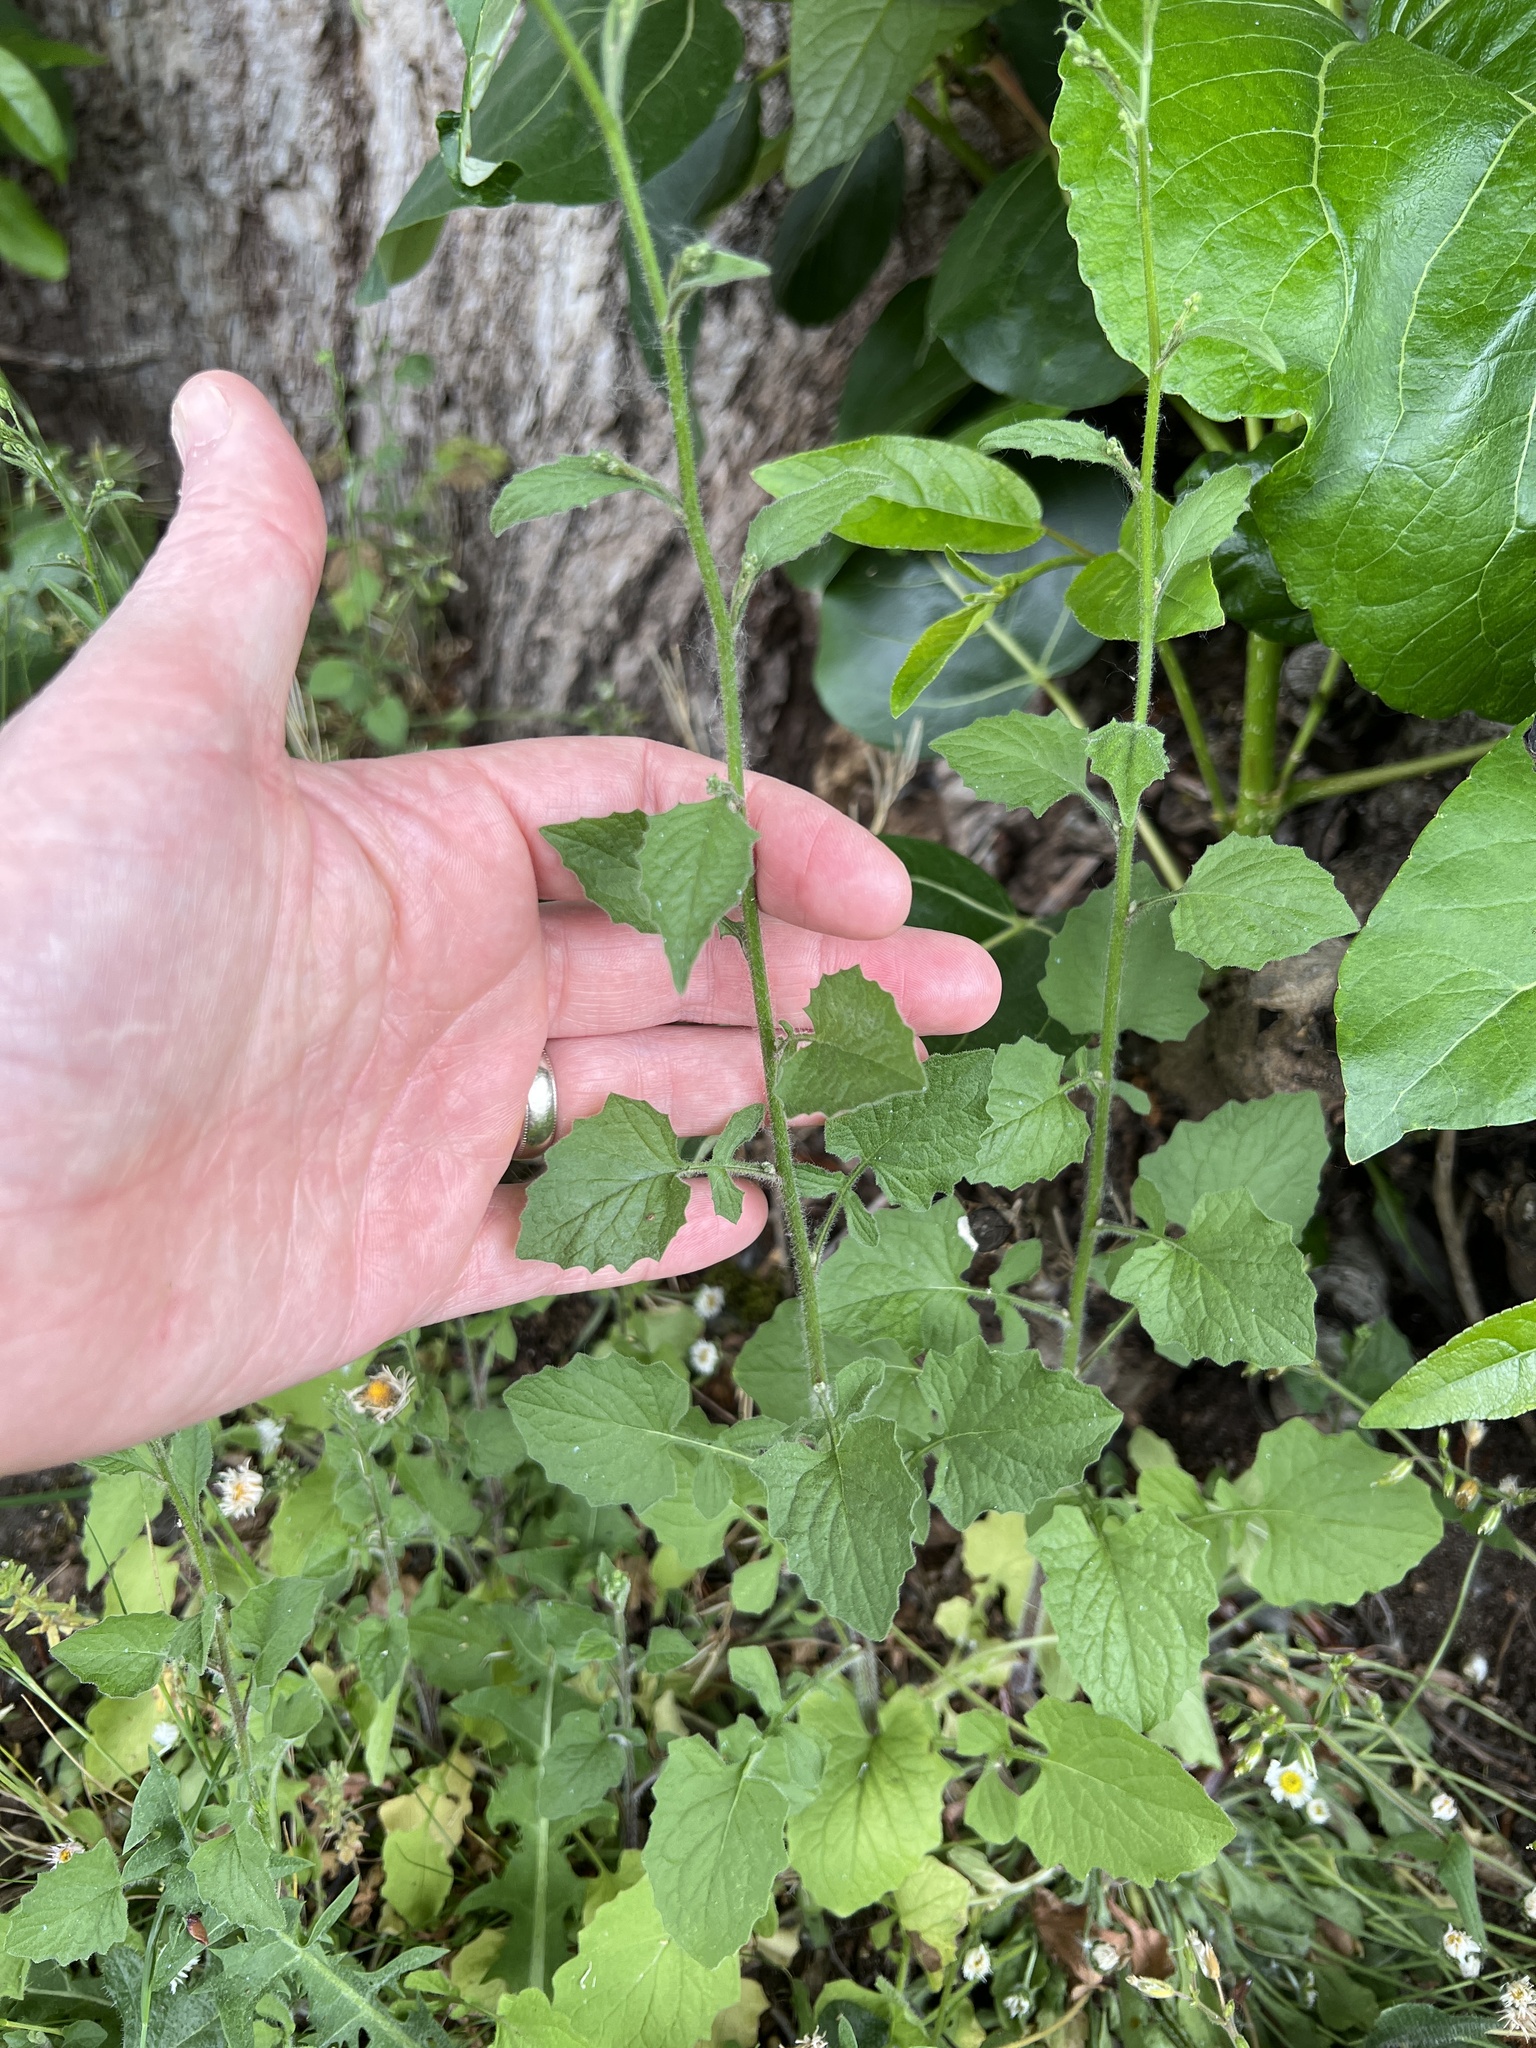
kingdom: Plantae
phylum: Tracheophyta
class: Magnoliopsida
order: Asterales
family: Asteraceae
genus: Lapsana
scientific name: Lapsana communis
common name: Nipplewort
